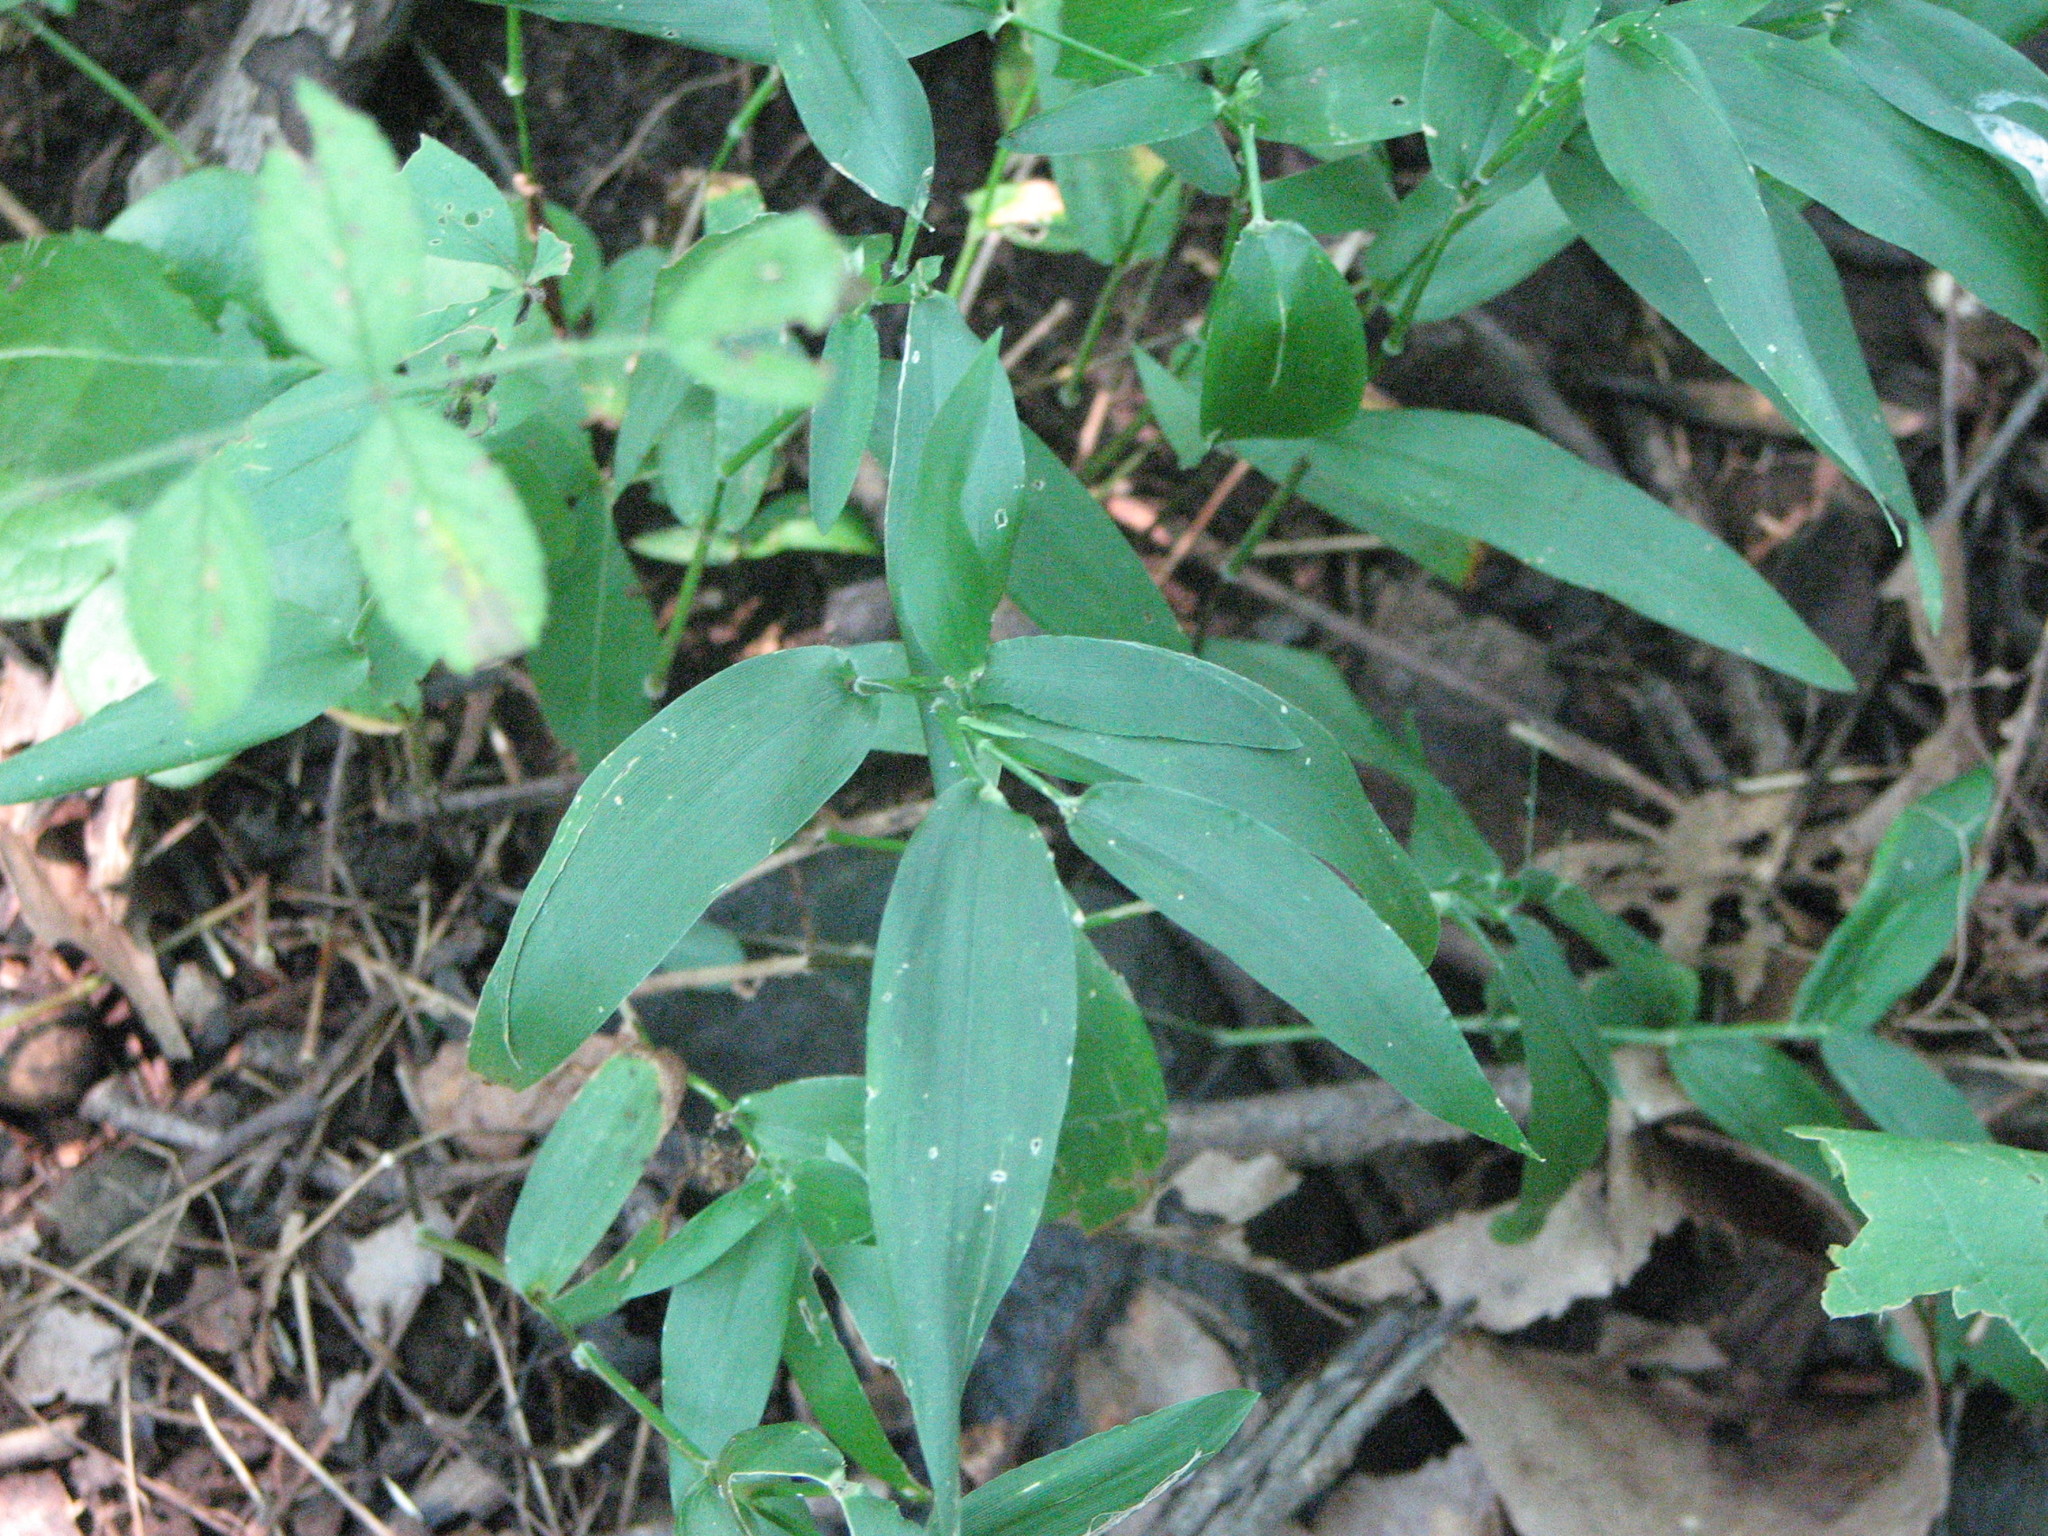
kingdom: Plantae
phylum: Tracheophyta
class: Liliopsida
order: Poales
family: Poaceae
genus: Dichanthelium
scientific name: Dichanthelium clandestinum
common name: Deer-tongue grass
